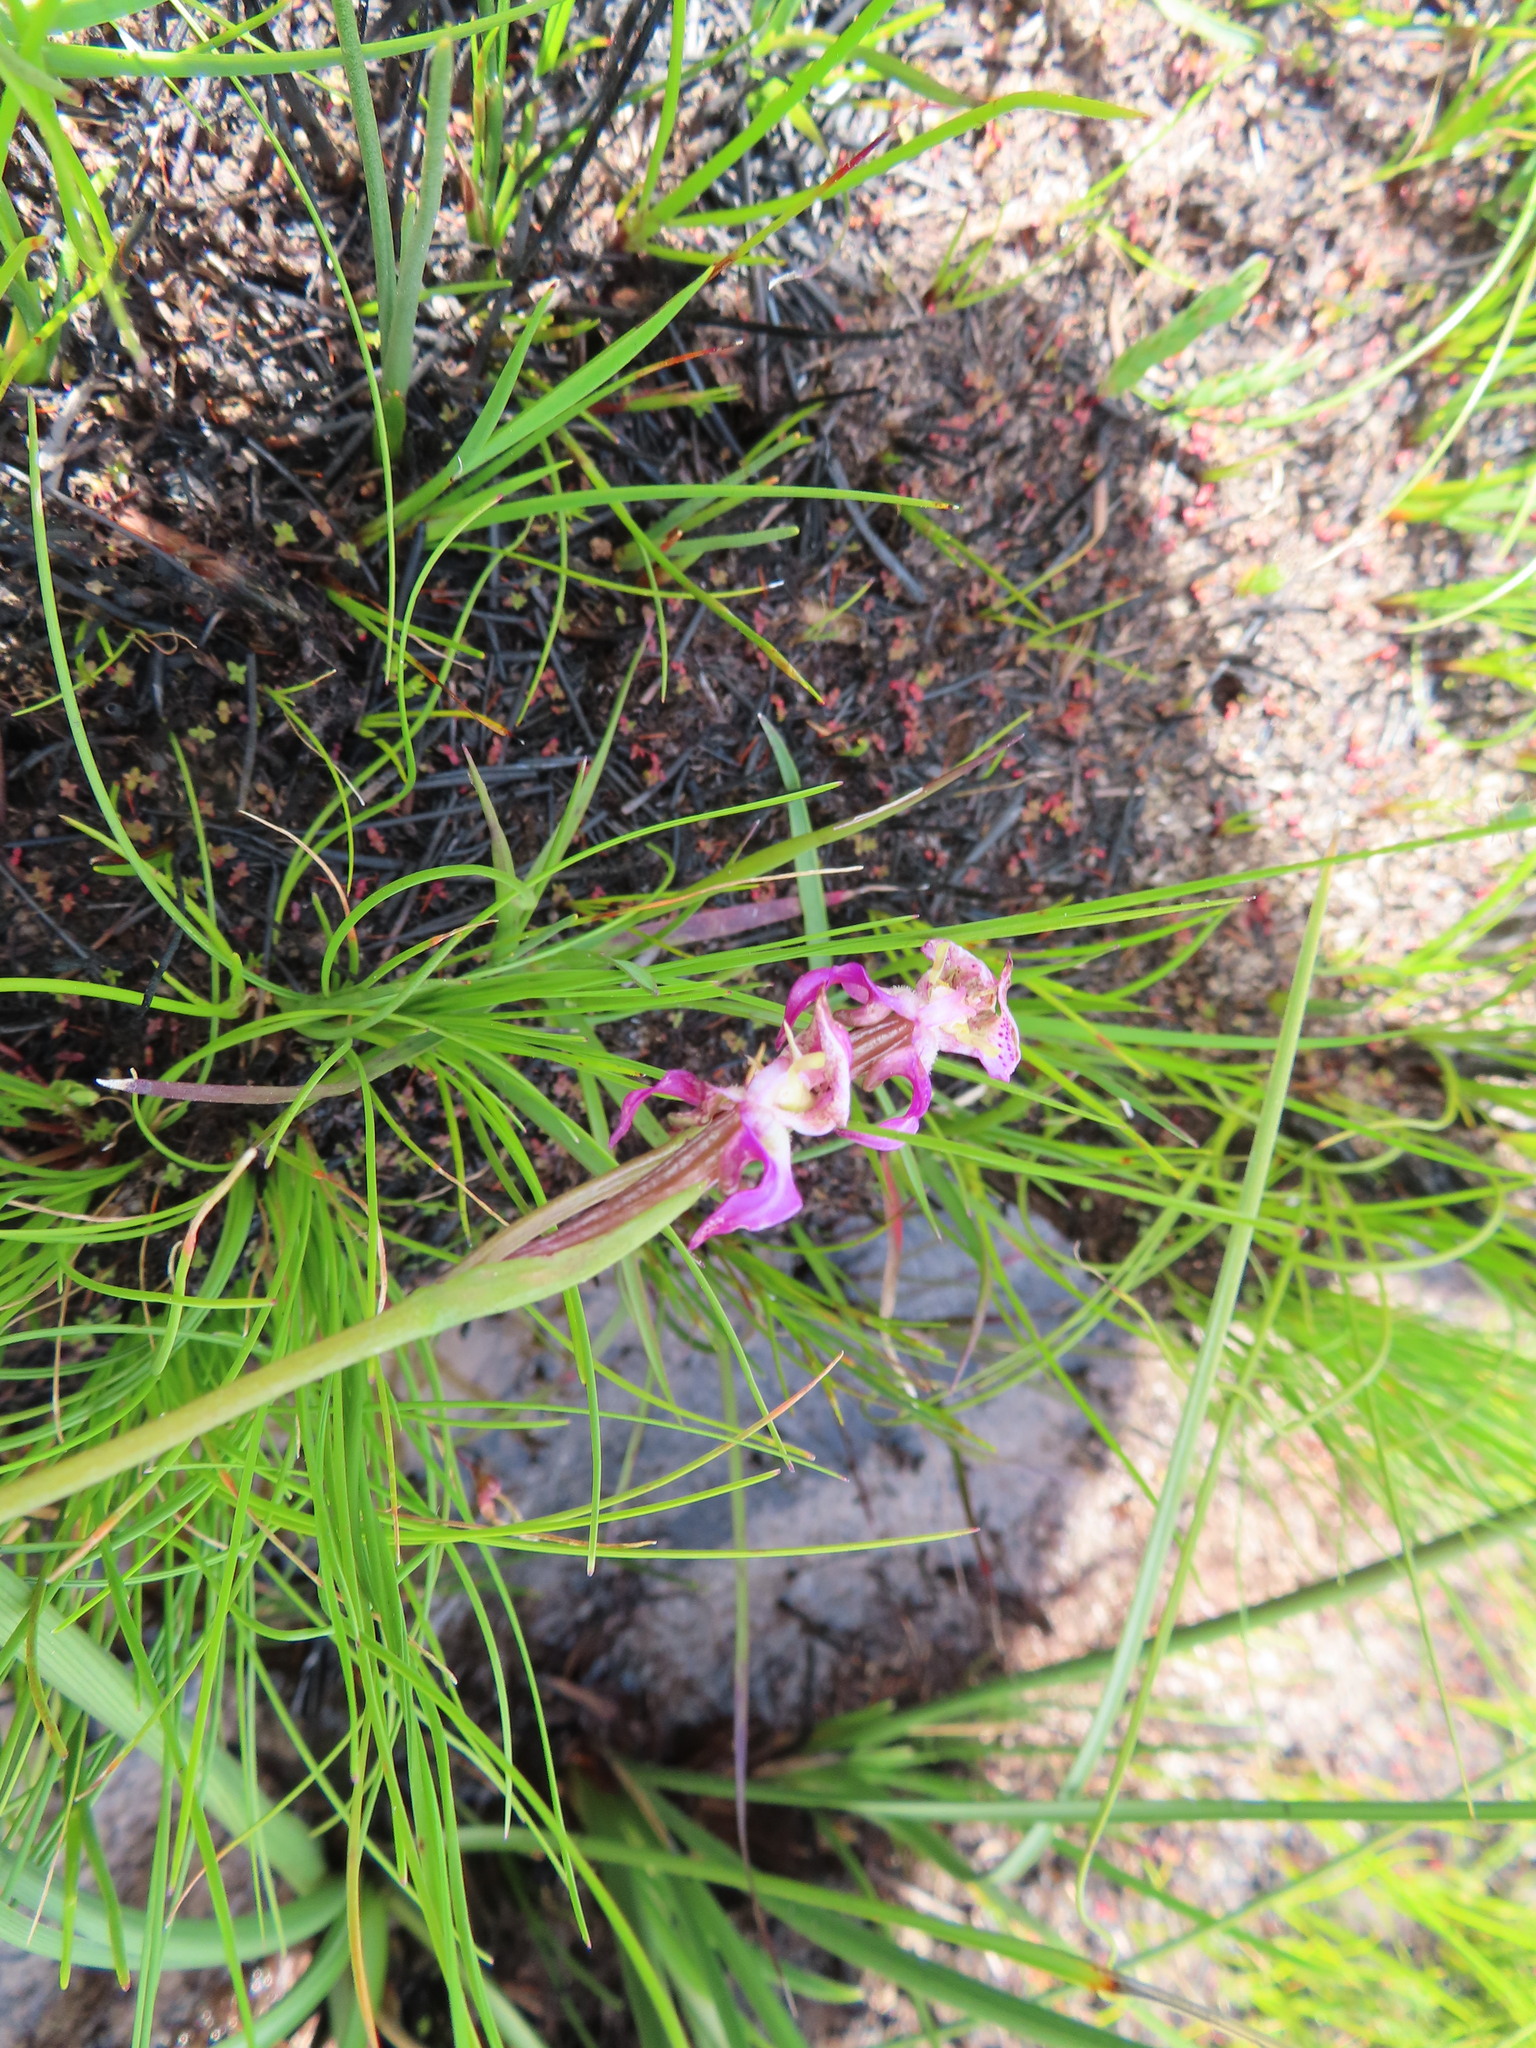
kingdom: Plantae
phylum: Tracheophyta
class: Liliopsida
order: Asparagales
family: Orchidaceae
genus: Disperis
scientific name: Disperis paludosa
